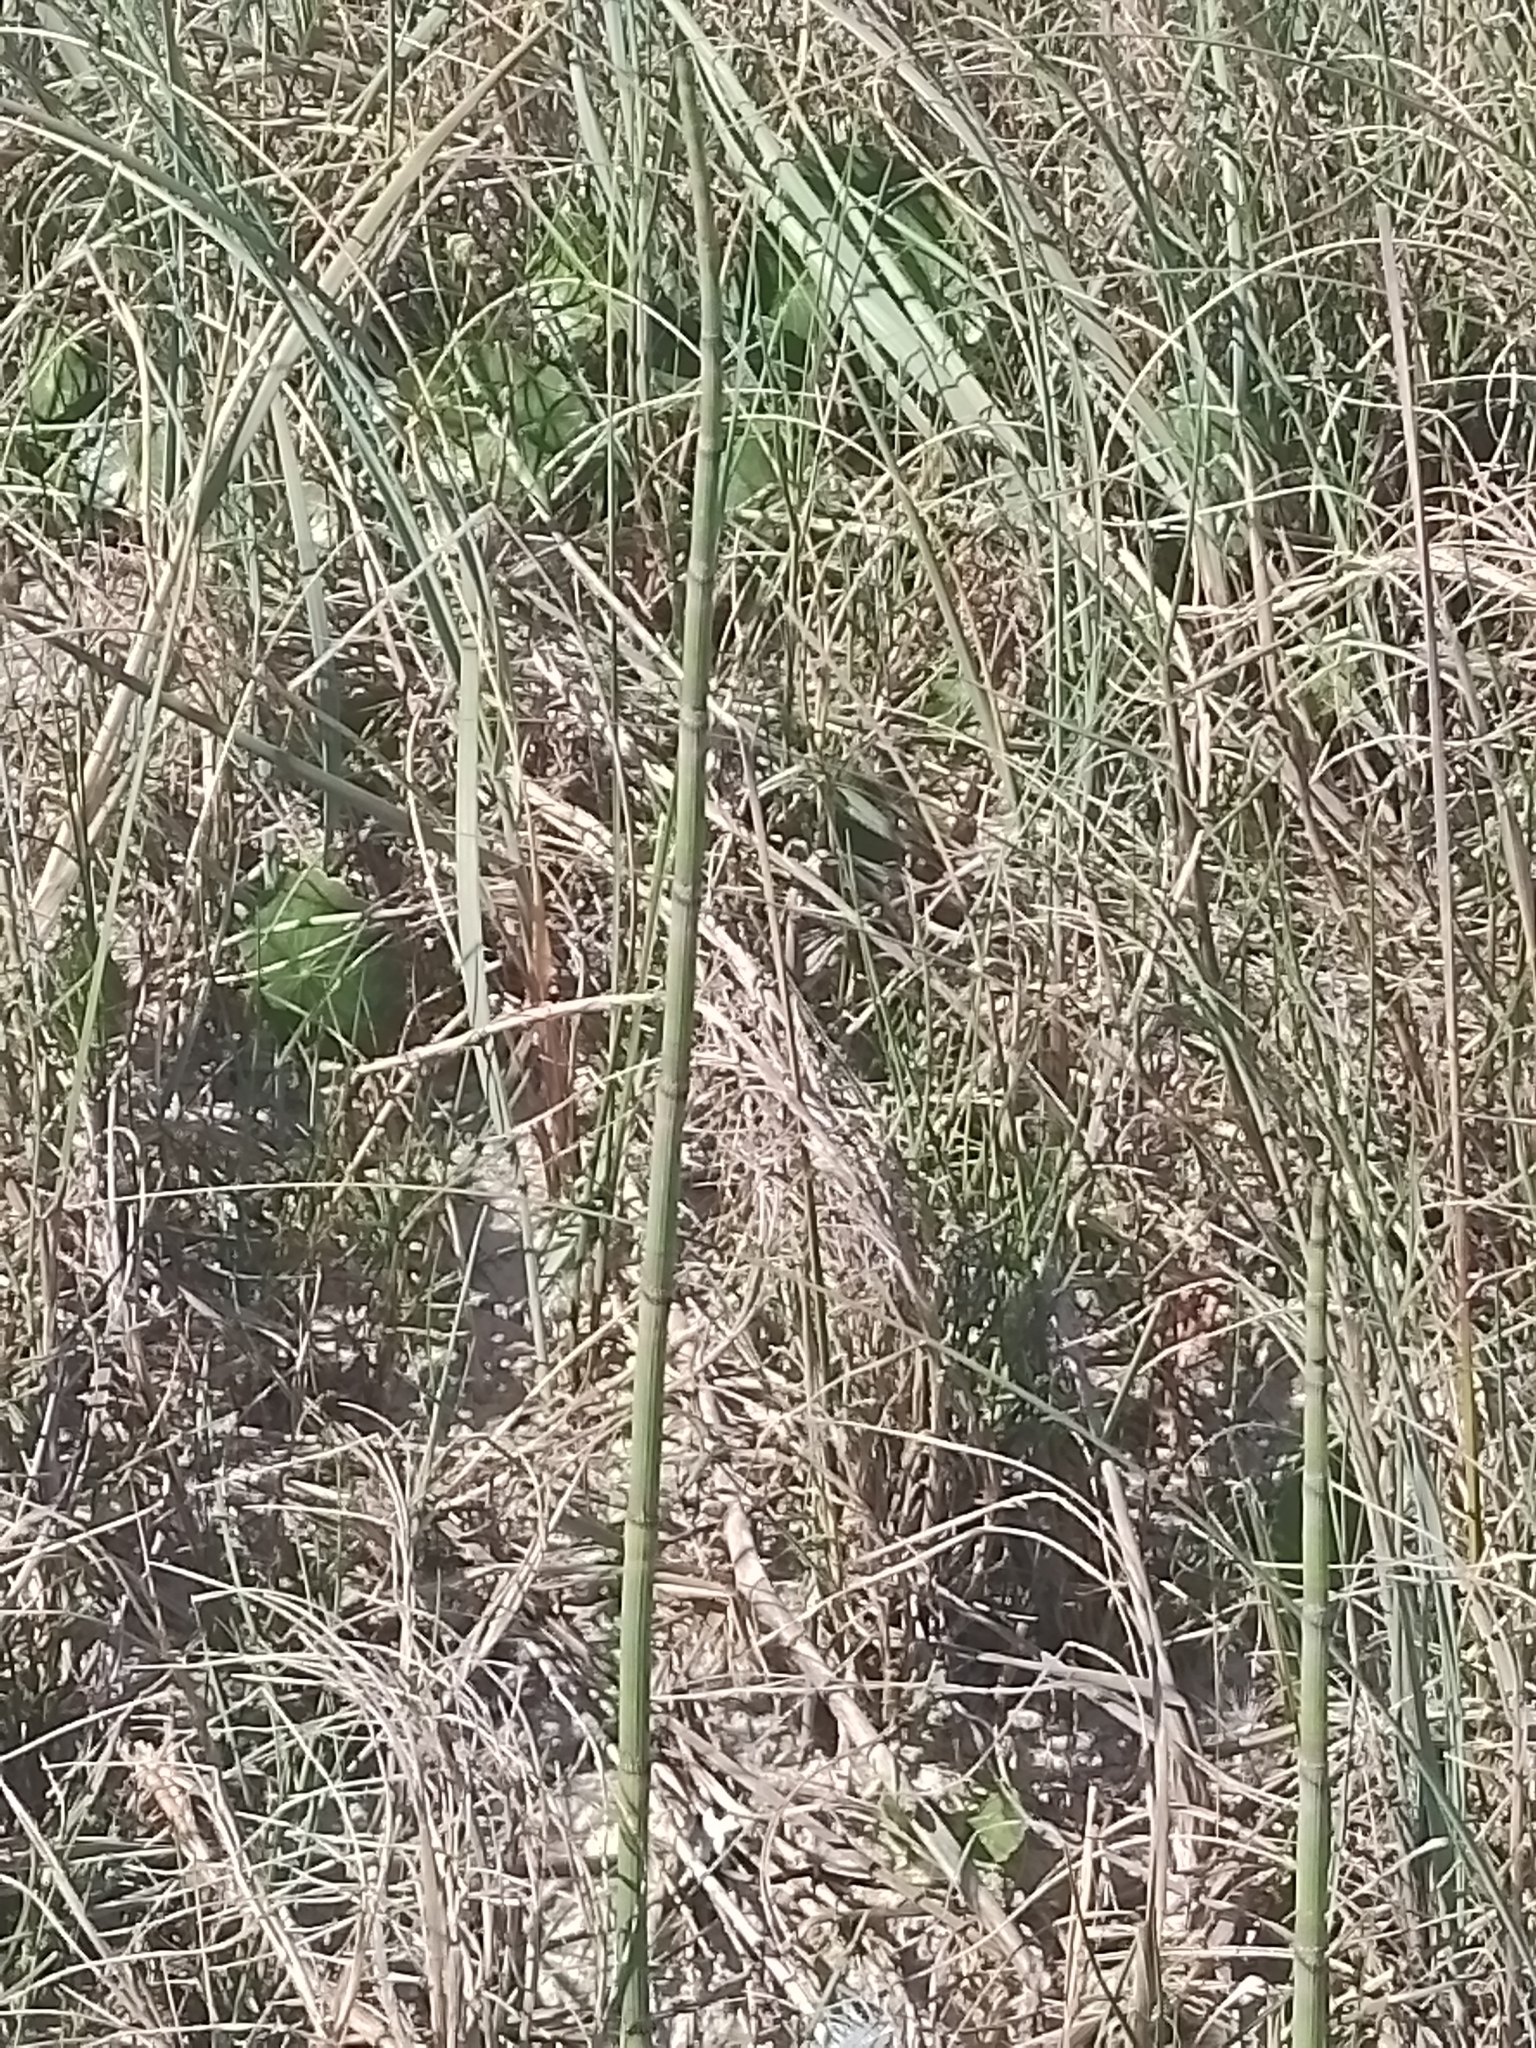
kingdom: Plantae
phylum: Tracheophyta
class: Polypodiopsida
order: Equisetales
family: Equisetaceae
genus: Equisetum
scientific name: Equisetum giganteum
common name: Giant horsetail
